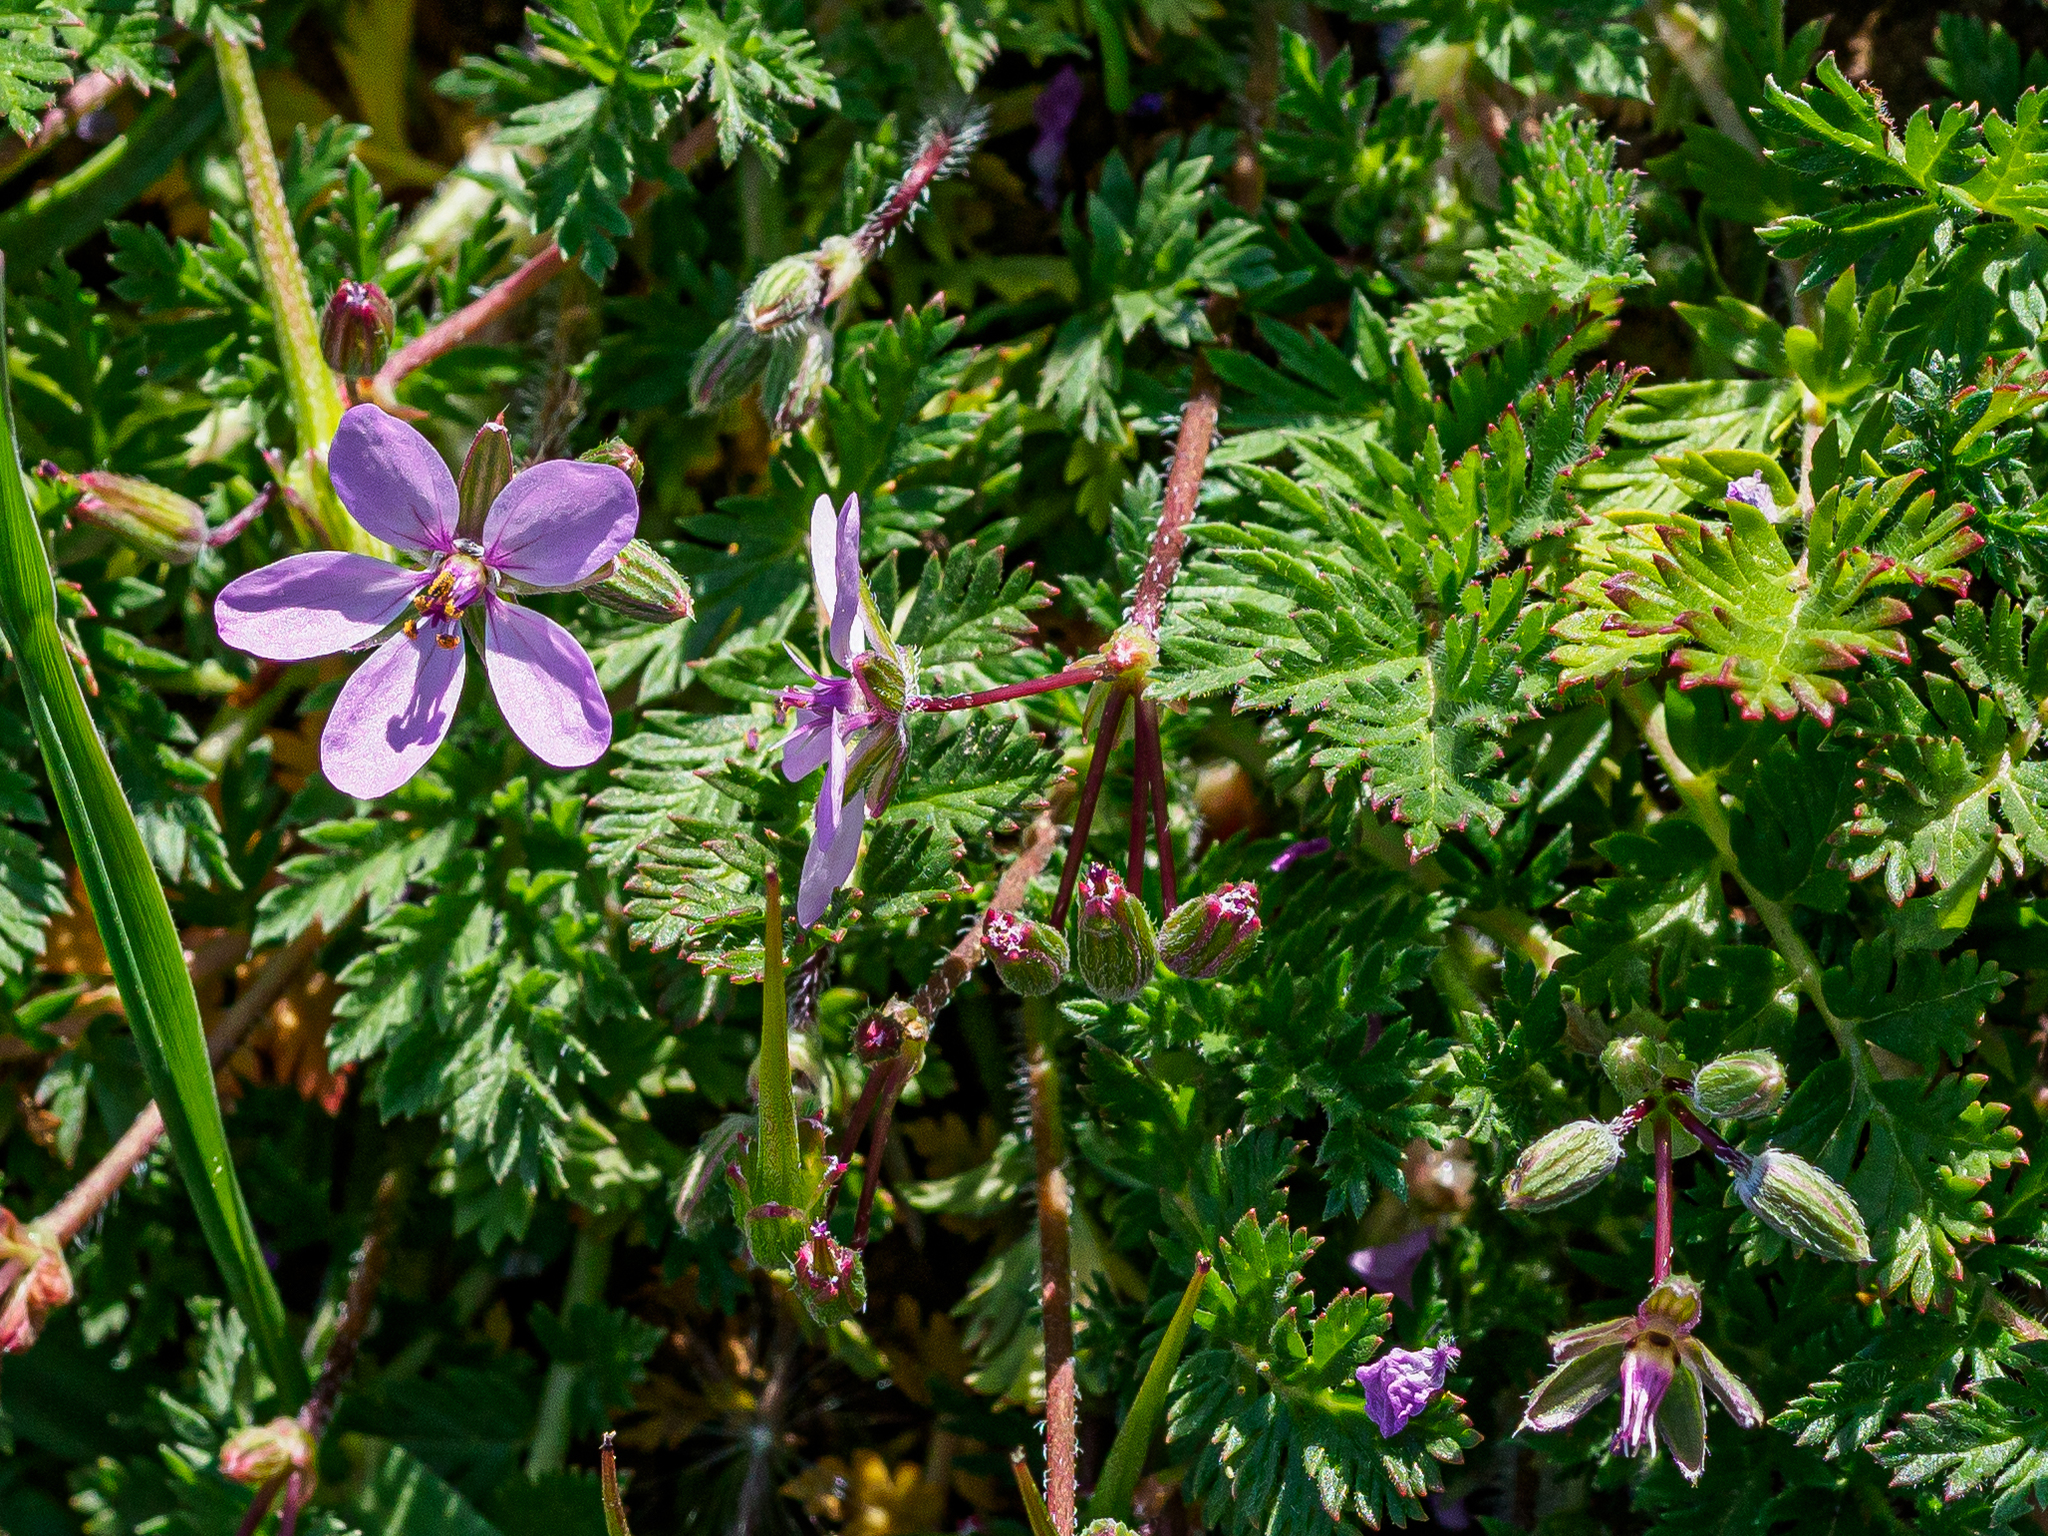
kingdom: Plantae
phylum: Tracheophyta
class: Magnoliopsida
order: Geraniales
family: Geraniaceae
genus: Erodium
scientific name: Erodium cicutarium
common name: Common stork's-bill
